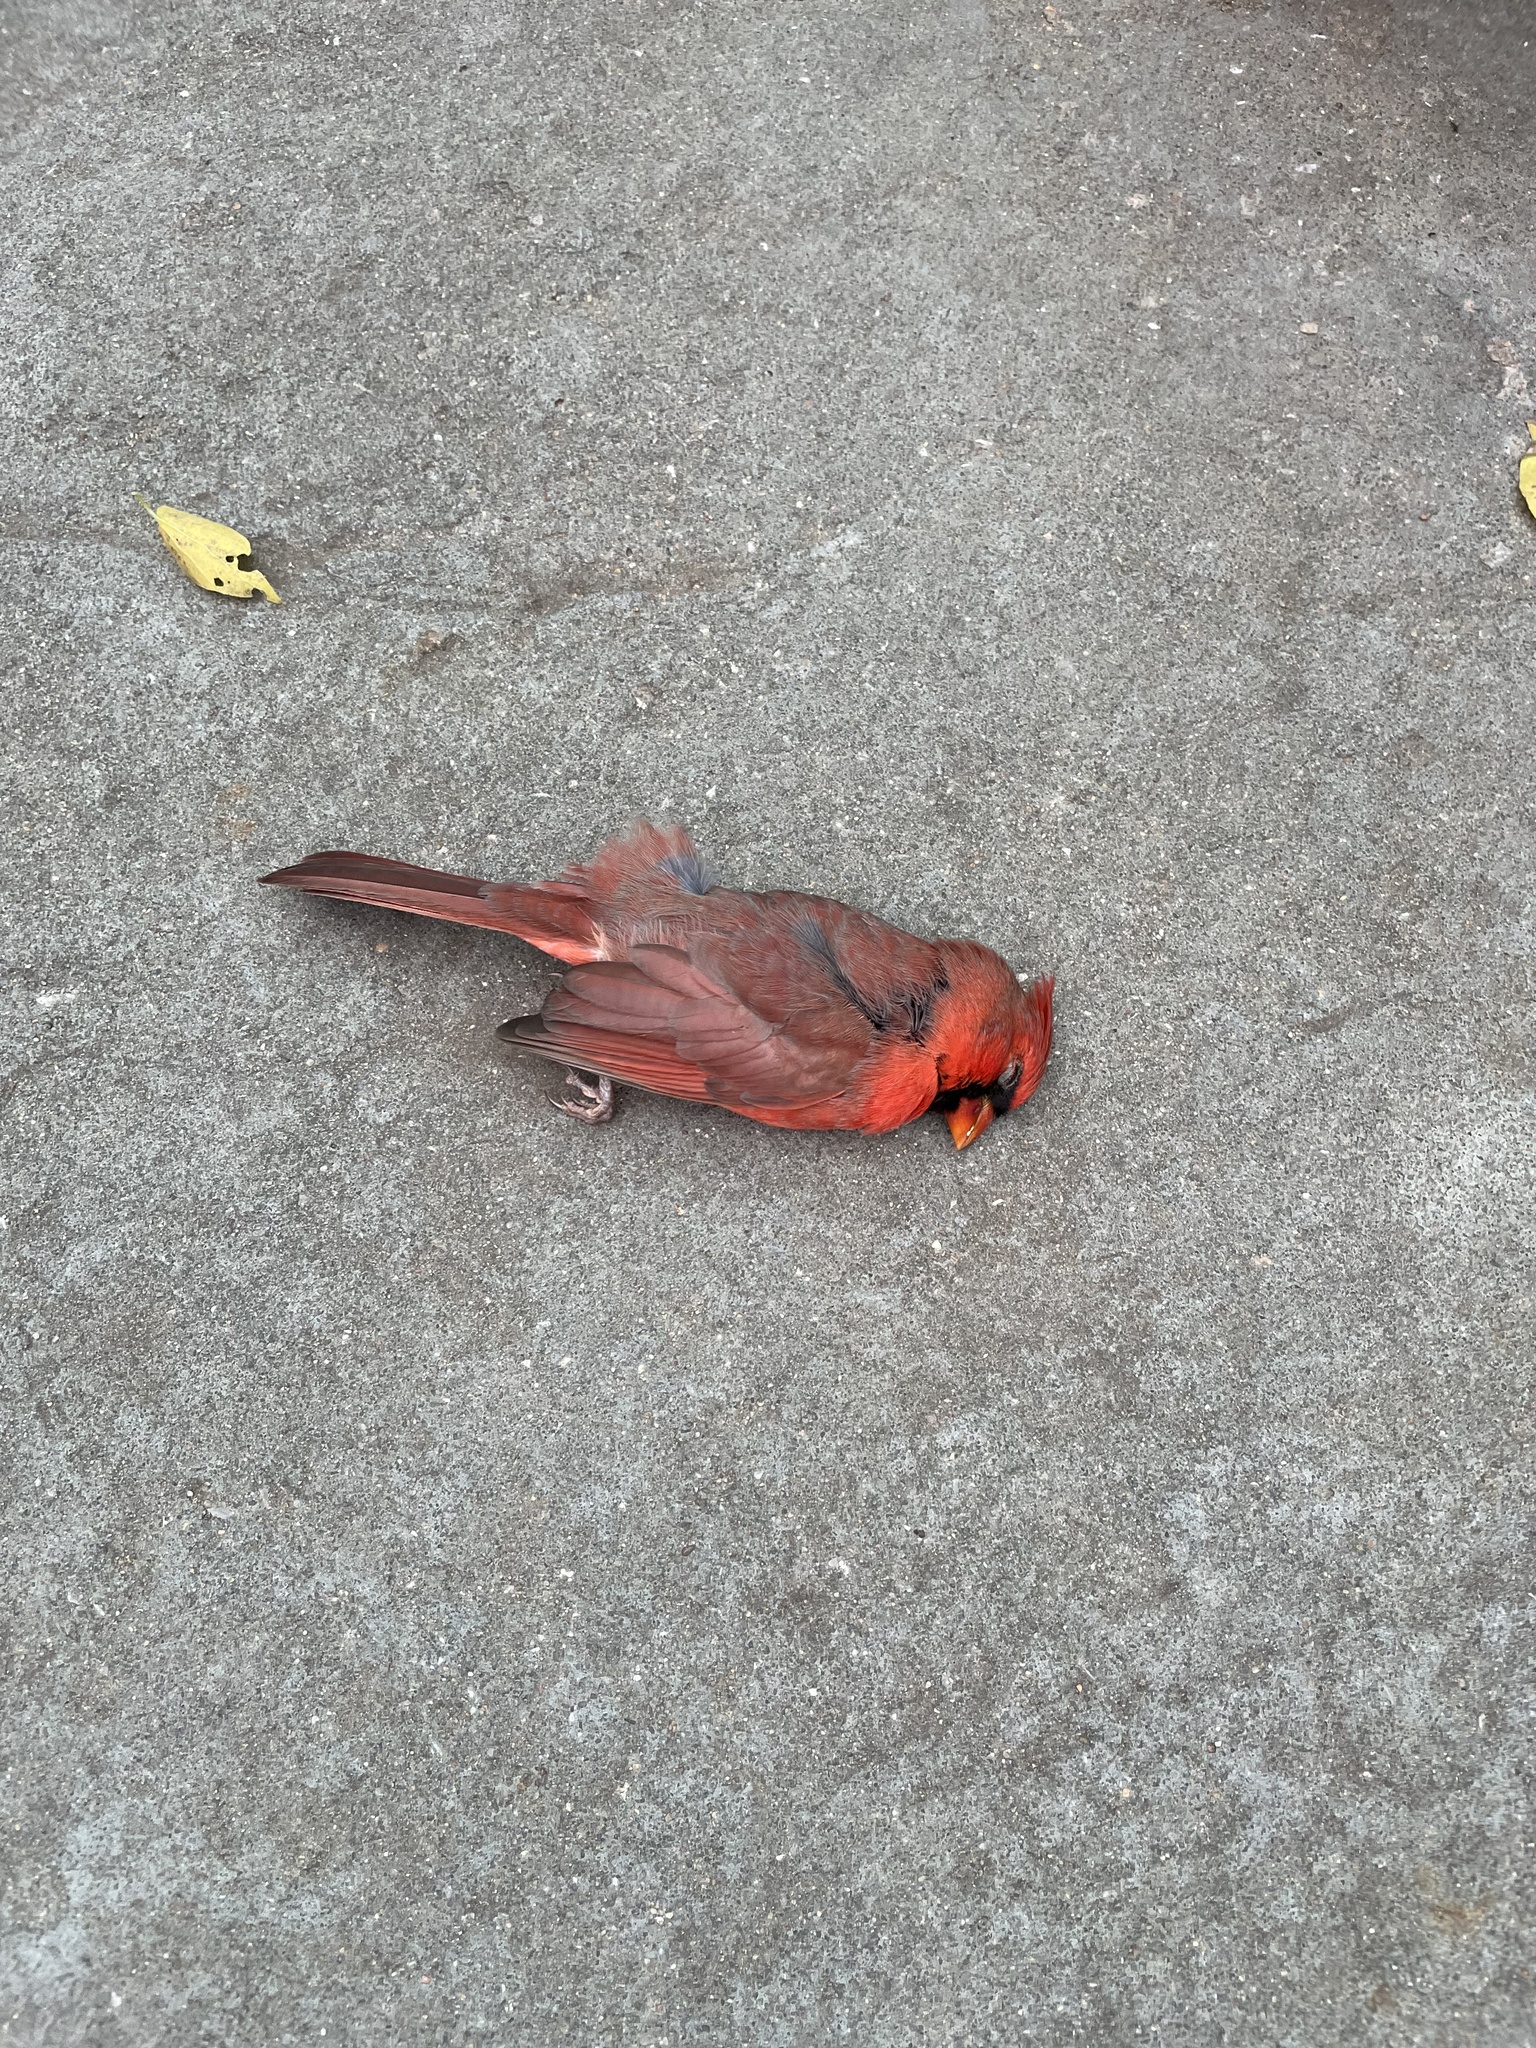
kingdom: Animalia
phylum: Chordata
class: Aves
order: Passeriformes
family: Cardinalidae
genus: Cardinalis
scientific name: Cardinalis cardinalis
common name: Northern cardinal
